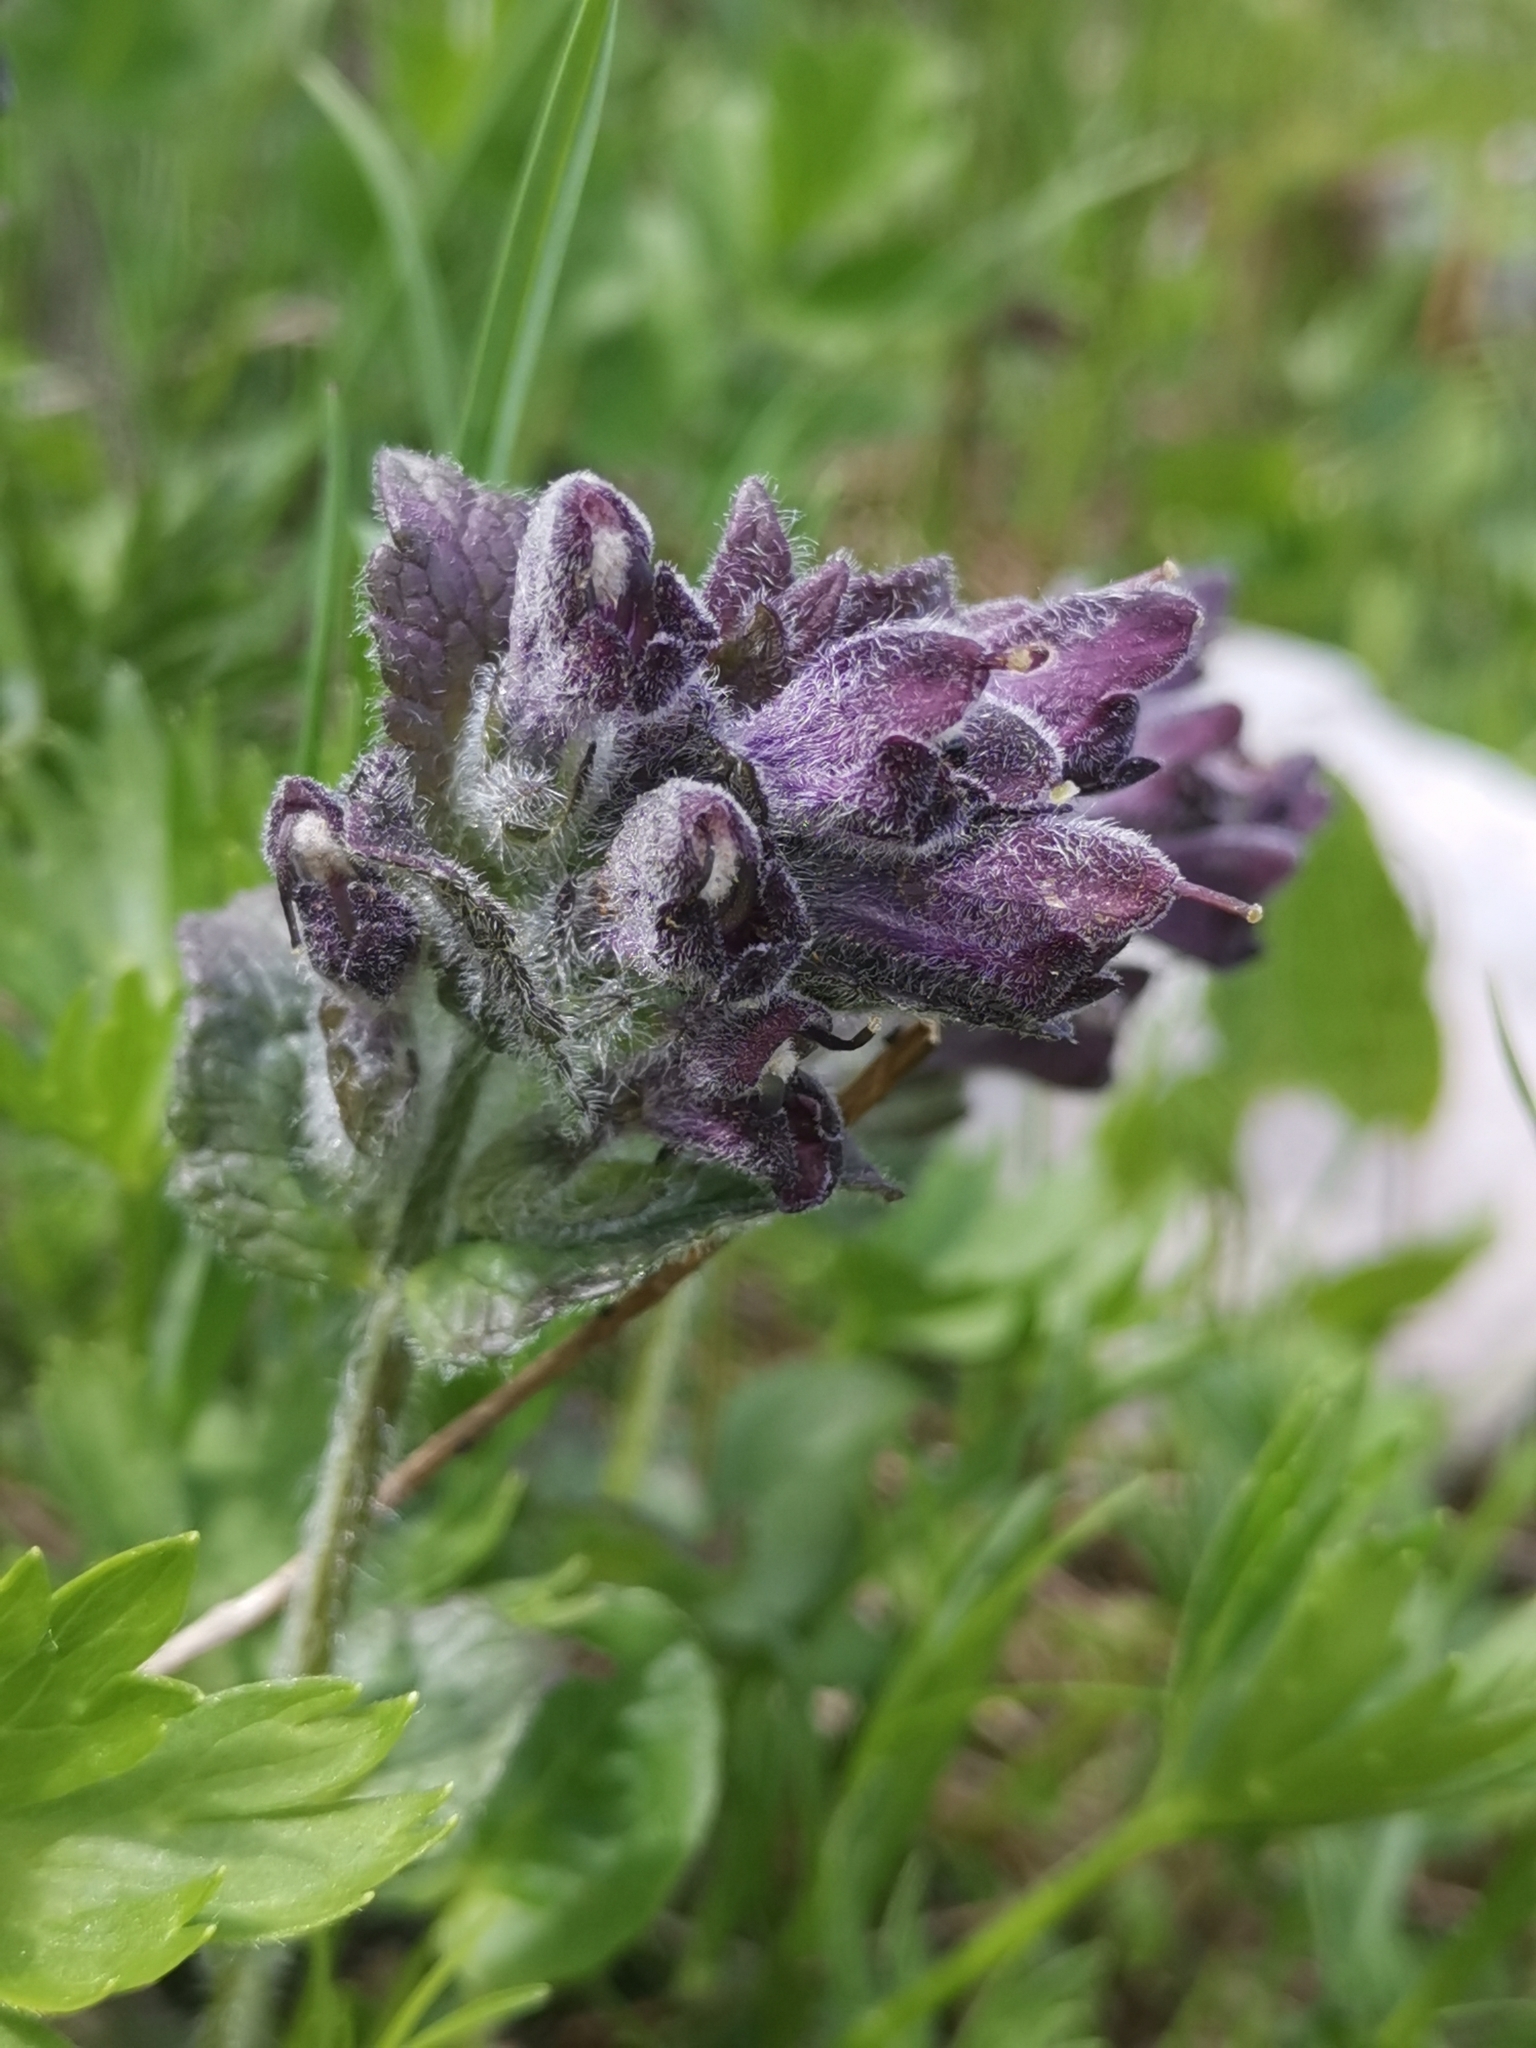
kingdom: Plantae
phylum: Tracheophyta
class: Magnoliopsida
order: Lamiales
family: Orobanchaceae
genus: Bartsia
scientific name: Bartsia alpina
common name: Alpine bartsia
